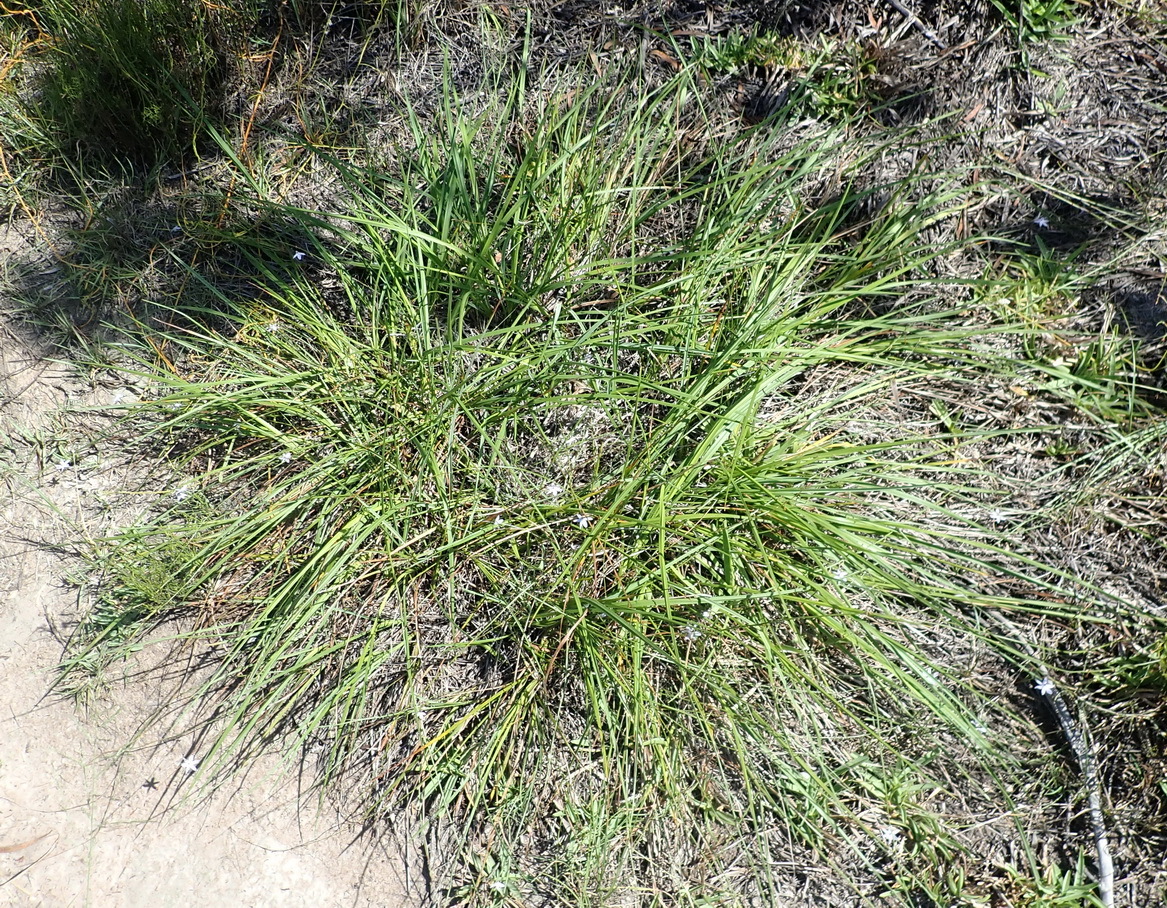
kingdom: Plantae
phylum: Tracheophyta
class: Liliopsida
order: Asparagales
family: Asphodelaceae
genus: Caesia
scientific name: Caesia contorta
